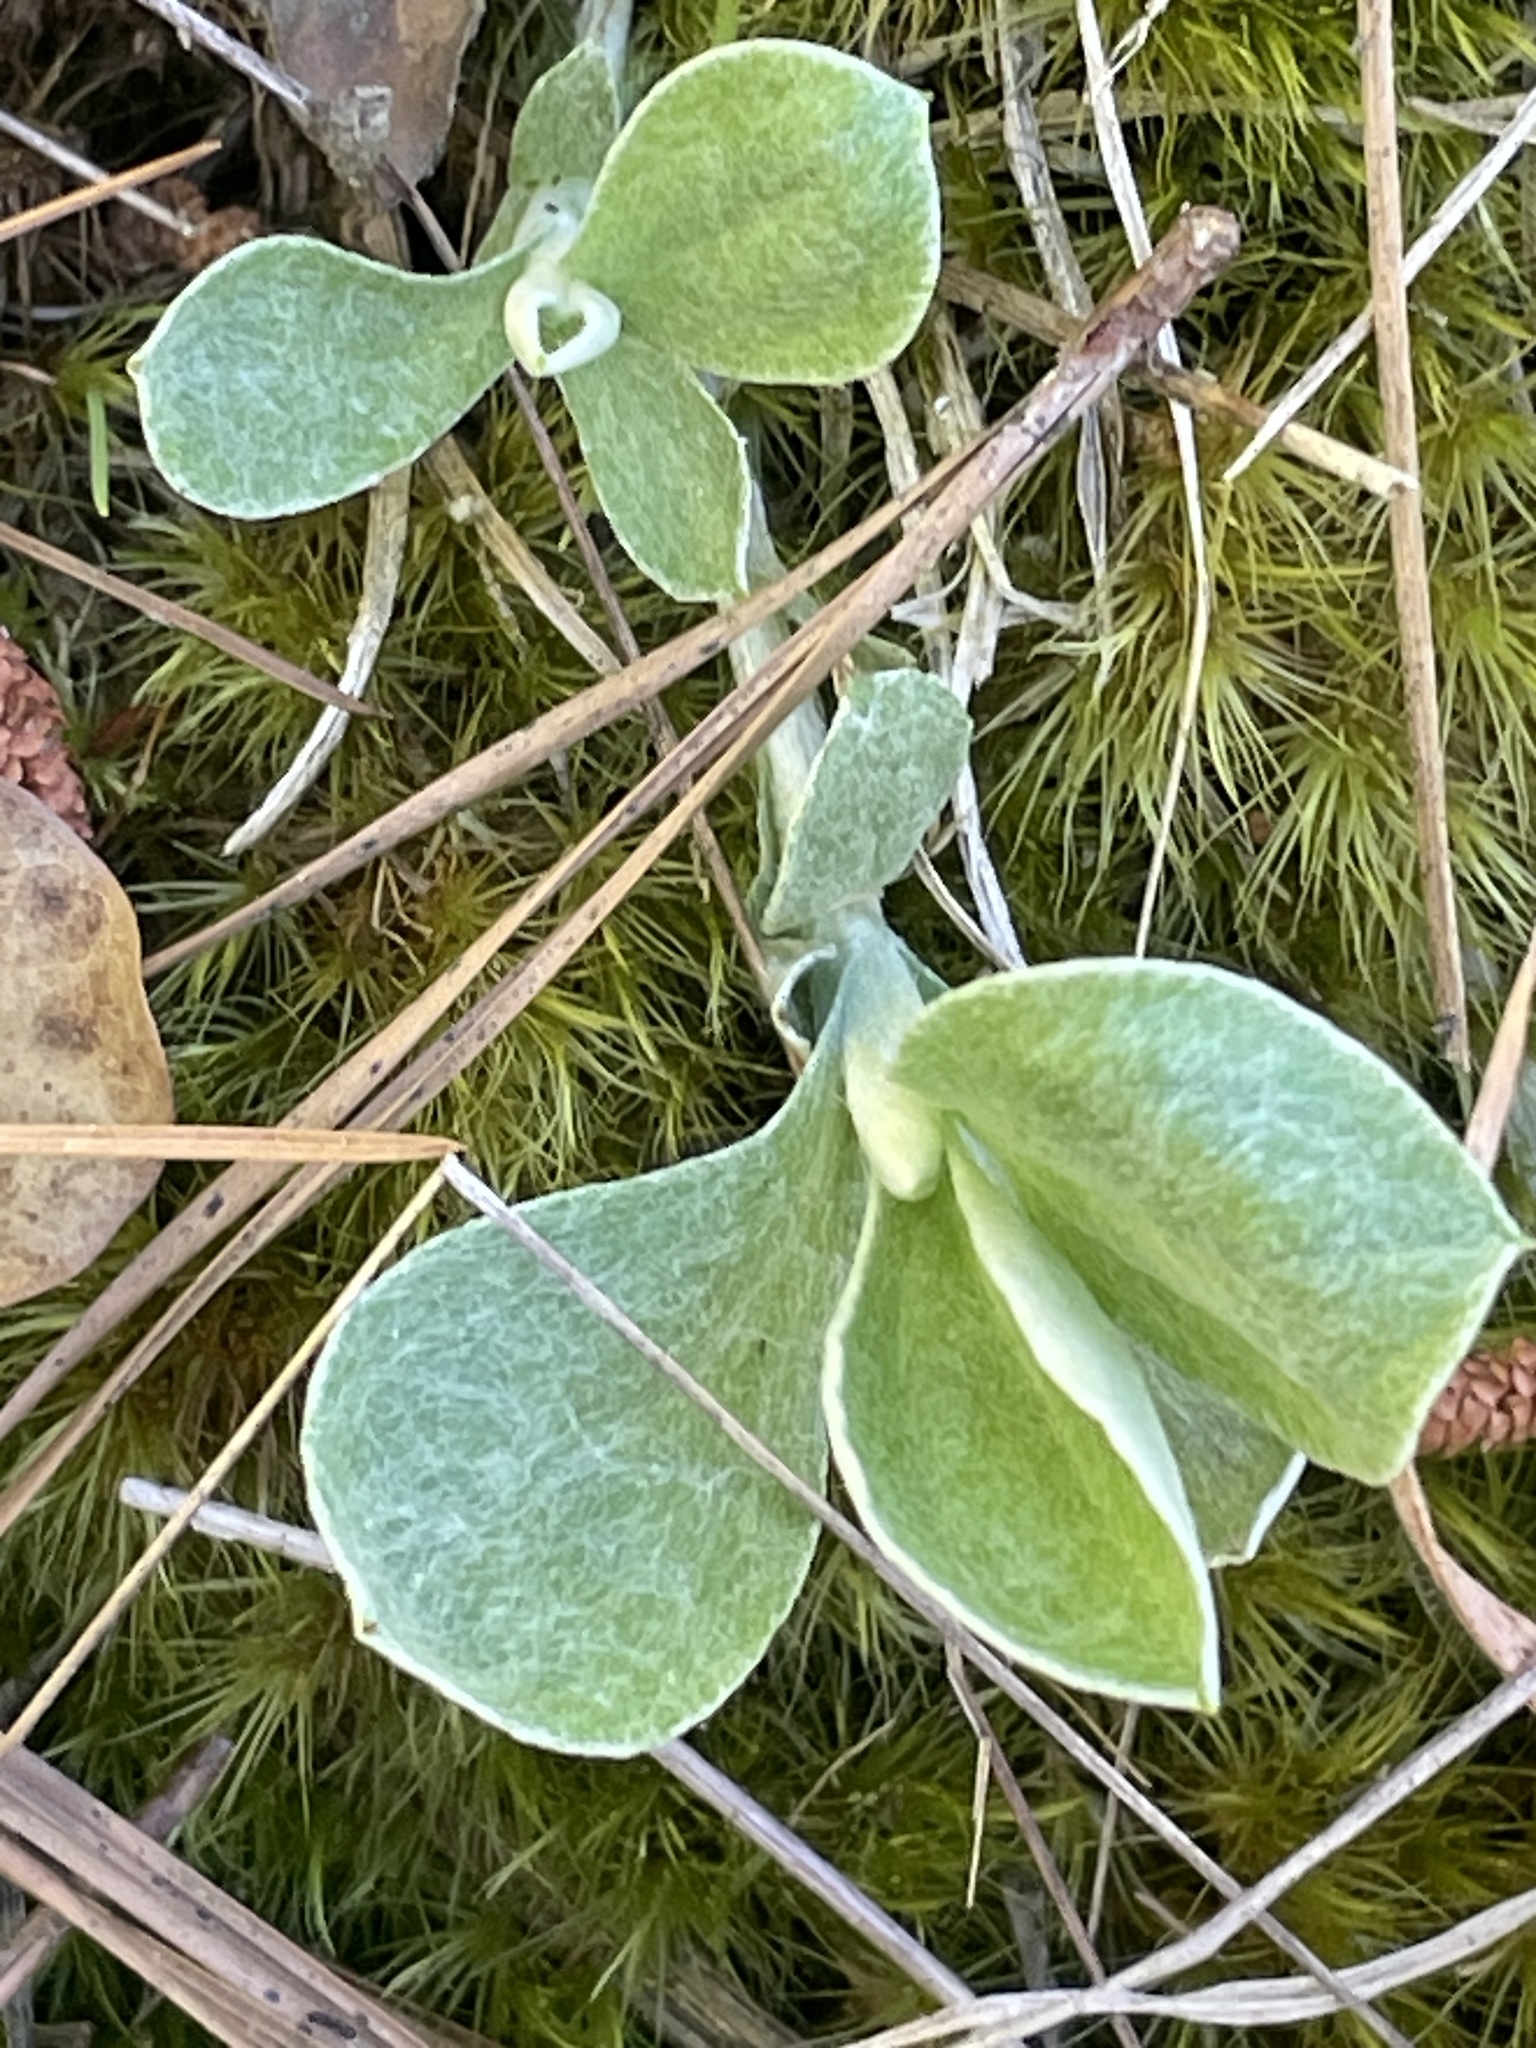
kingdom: Plantae
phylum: Tracheophyta
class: Magnoliopsida
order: Asterales
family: Asteraceae
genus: Antennaria
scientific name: Antennaria parlinii
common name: Parlin's pussytoes
